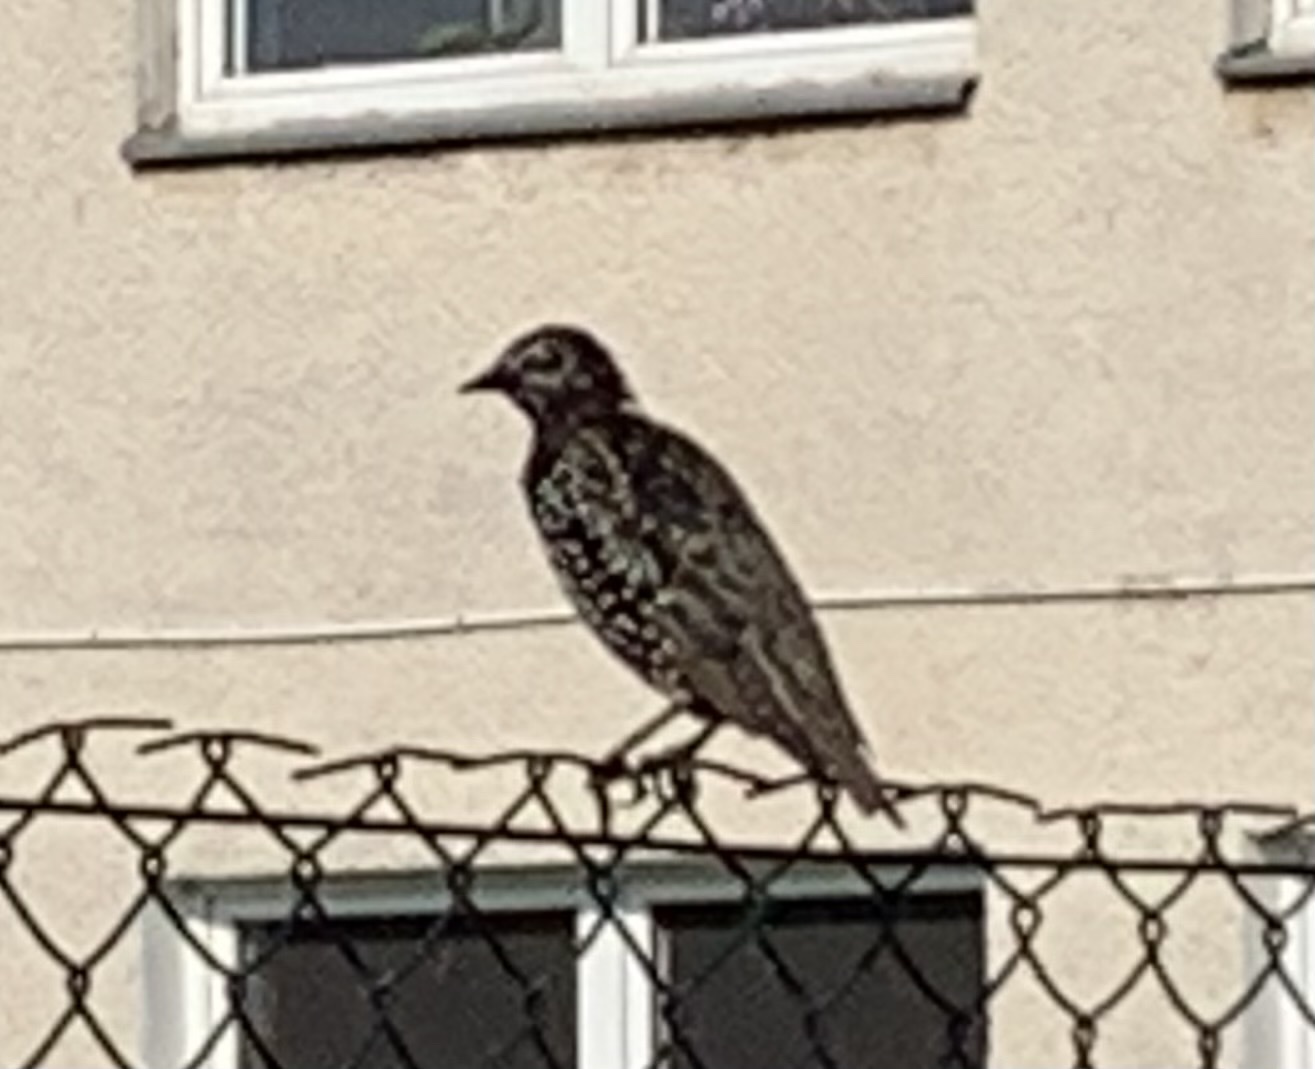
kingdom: Animalia
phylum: Chordata
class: Aves
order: Passeriformes
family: Sturnidae
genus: Sturnus
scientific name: Sturnus vulgaris
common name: Common starling
